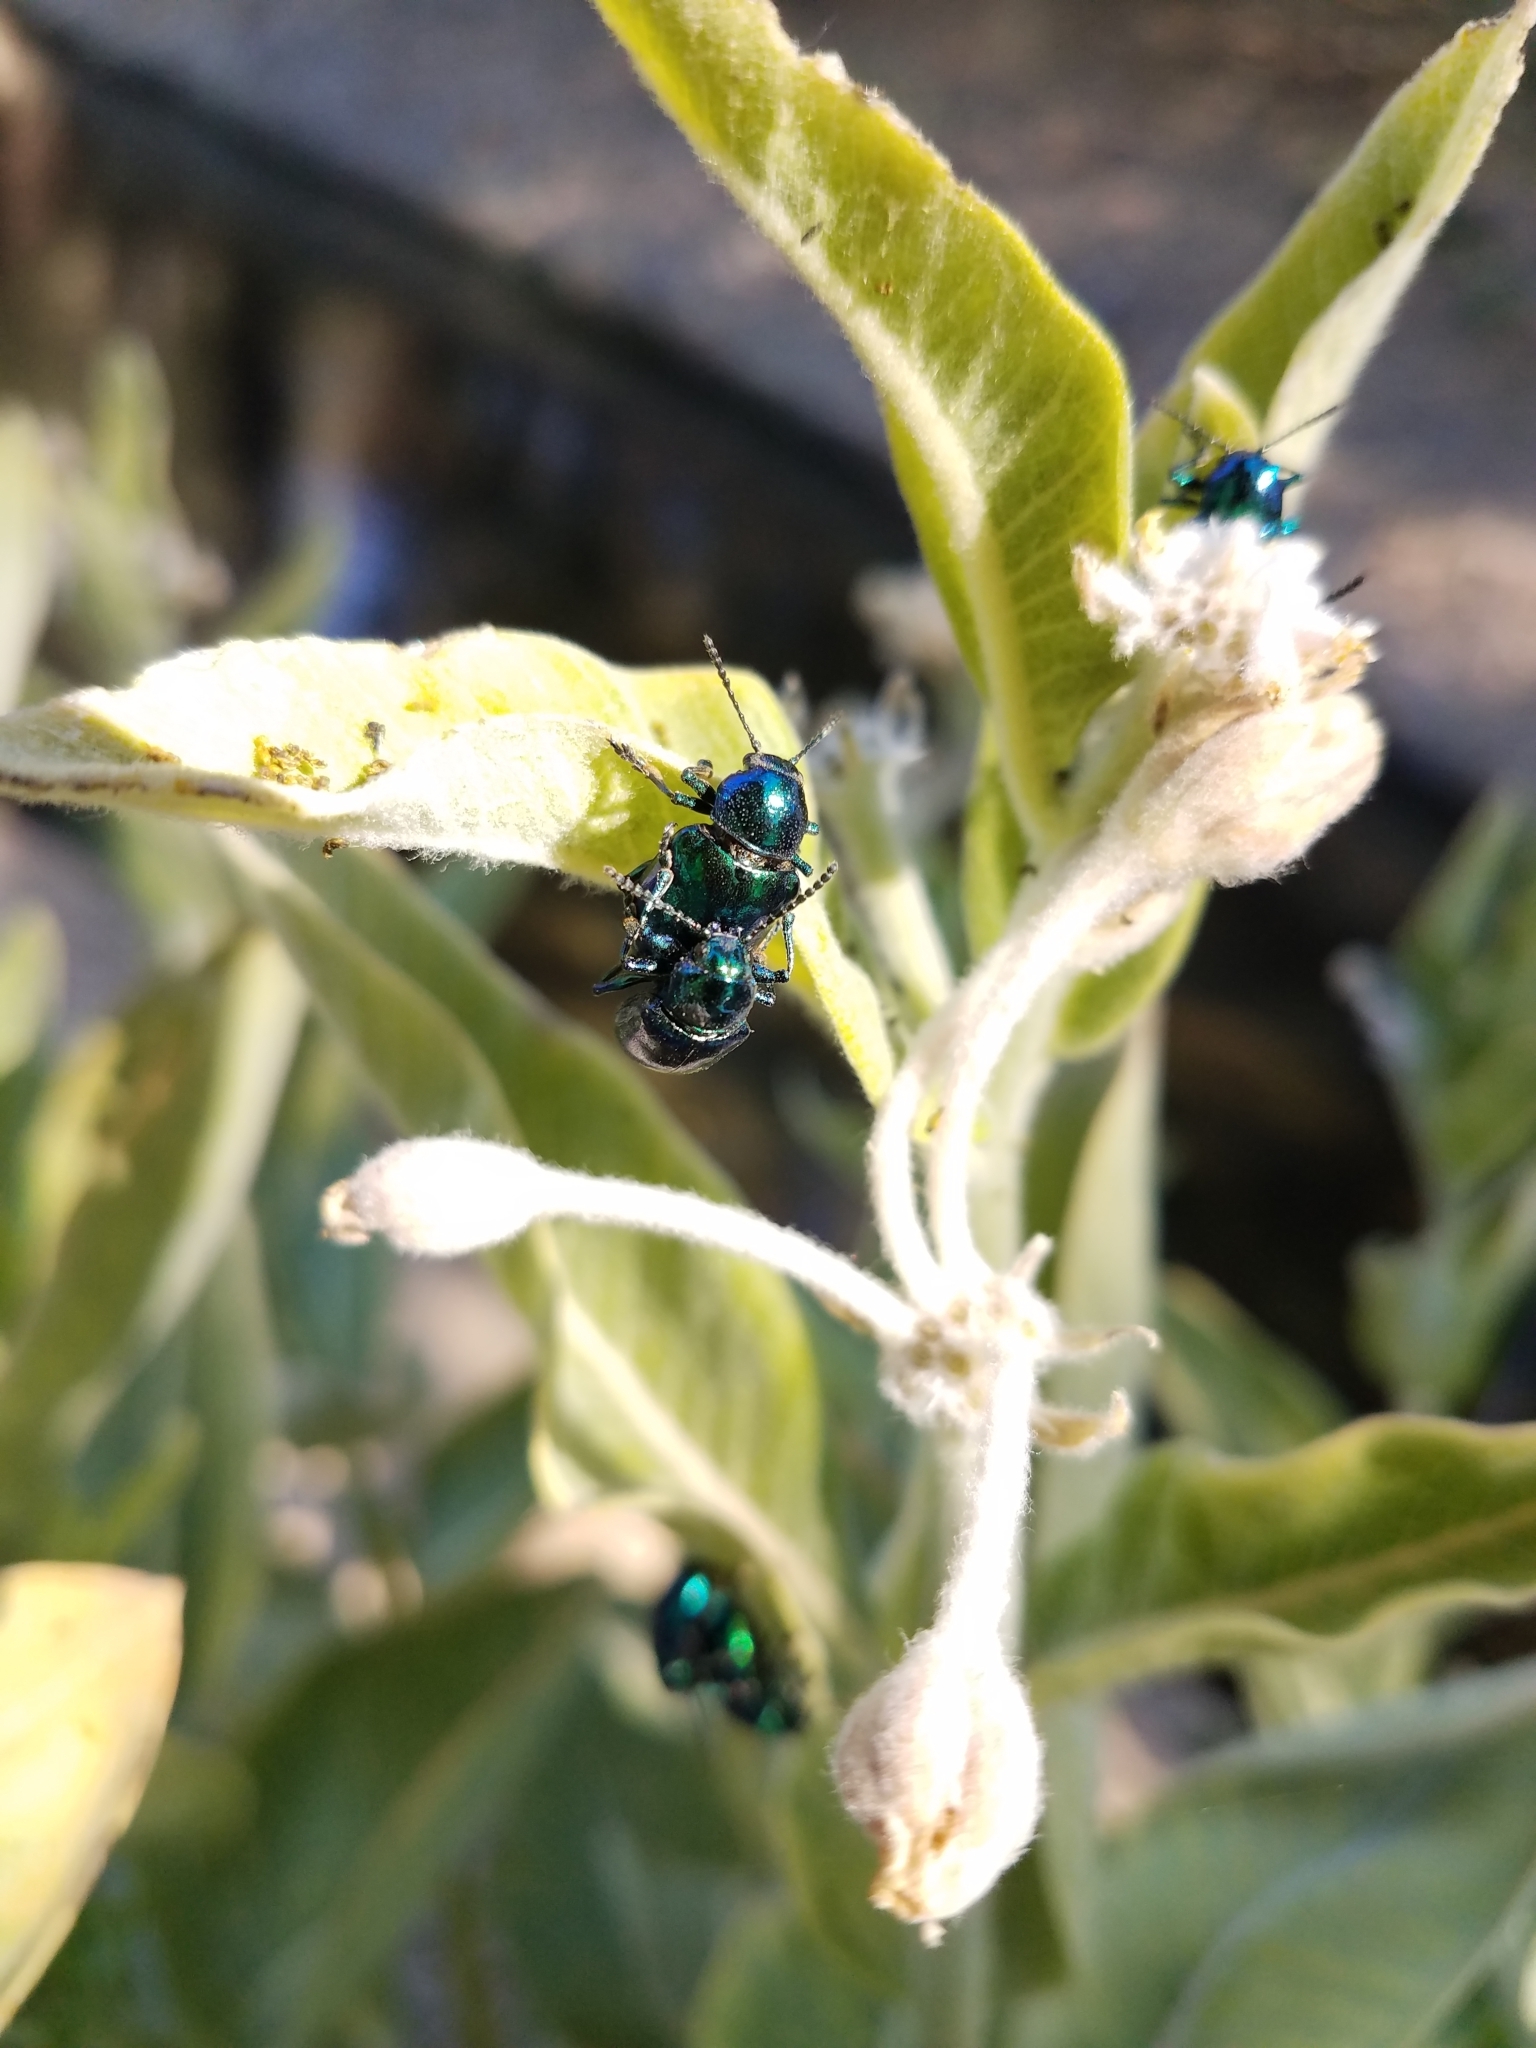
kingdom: Animalia
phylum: Arthropoda
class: Insecta
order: Coleoptera
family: Chrysomelidae
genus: Chrysochus
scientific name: Chrysochus cobaltinus
